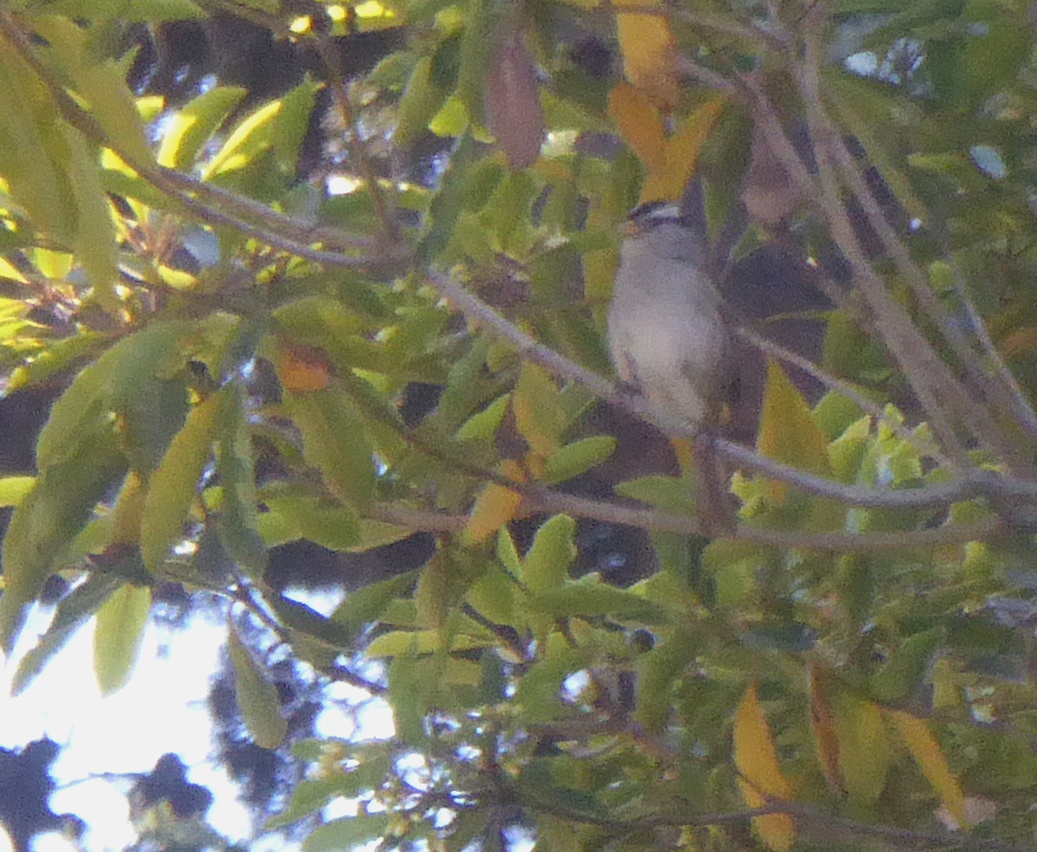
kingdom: Animalia
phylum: Chordata
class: Aves
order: Passeriformes
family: Passerellidae
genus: Zonotrichia
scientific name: Zonotrichia leucophrys
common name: White-crowned sparrow
